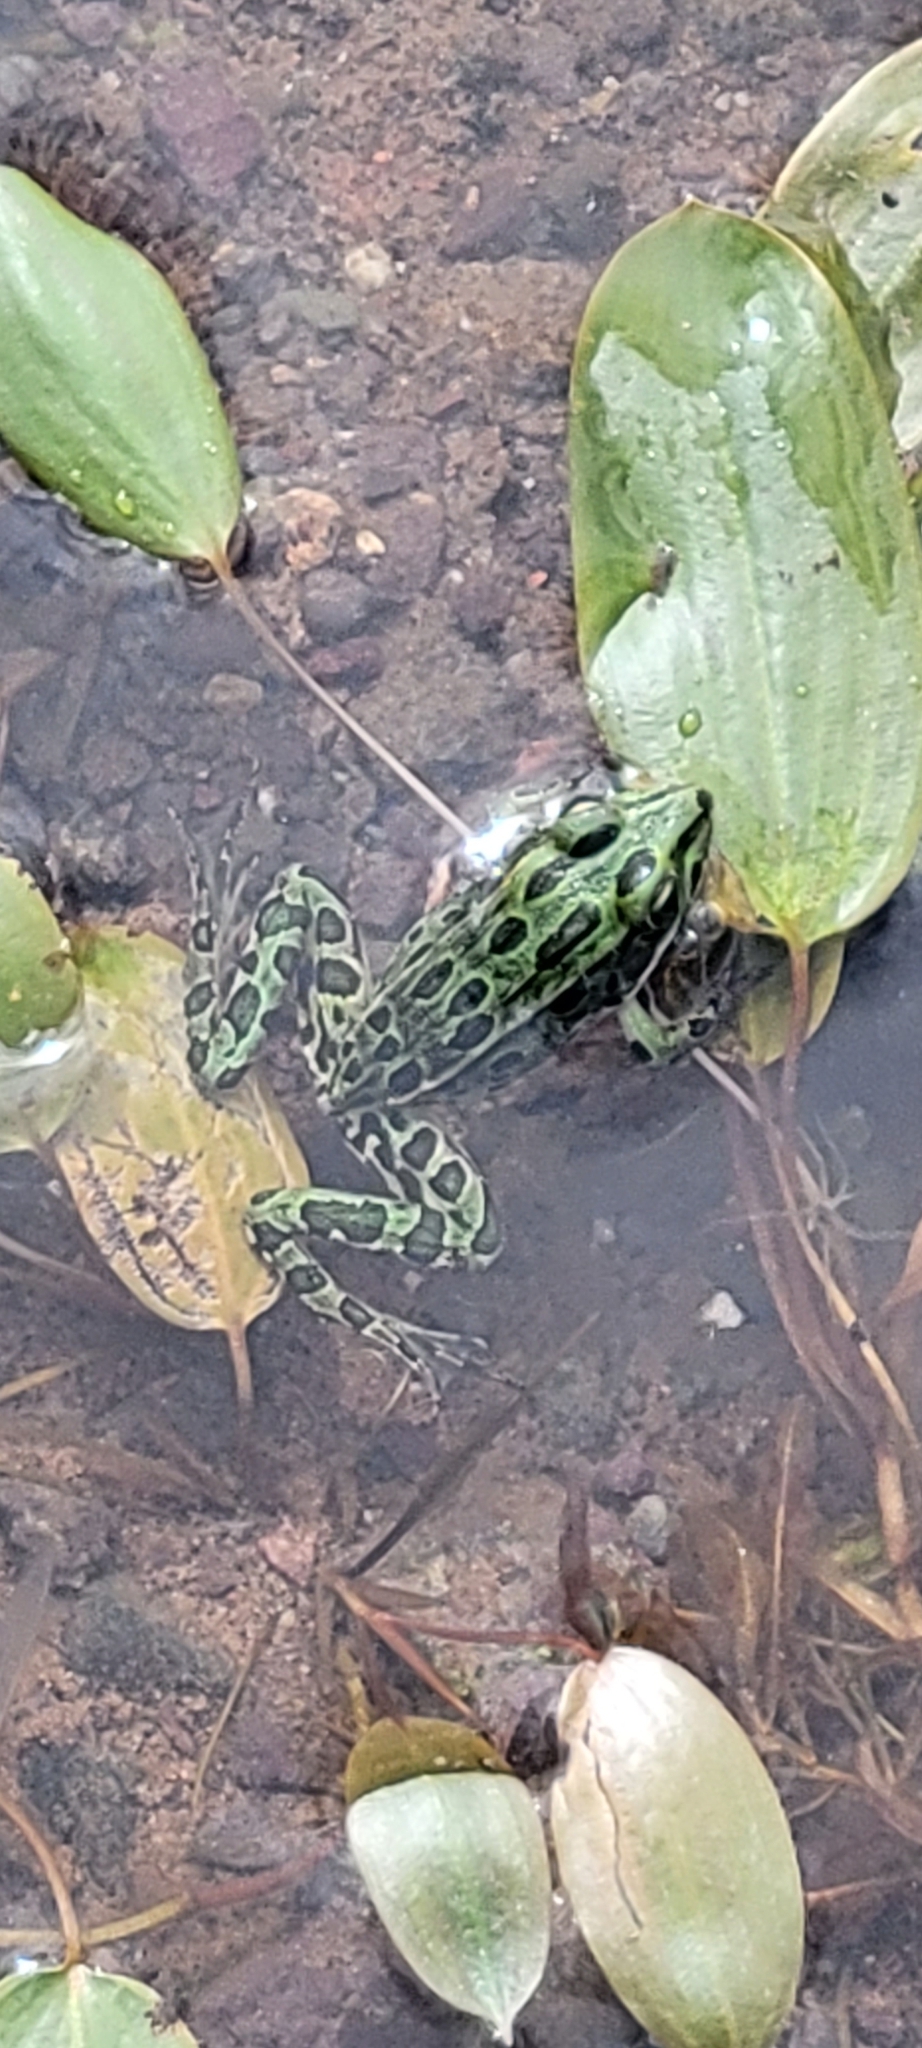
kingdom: Animalia
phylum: Chordata
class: Amphibia
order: Anura
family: Ranidae
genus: Lithobates
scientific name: Lithobates pipiens
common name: Northern leopard frog
